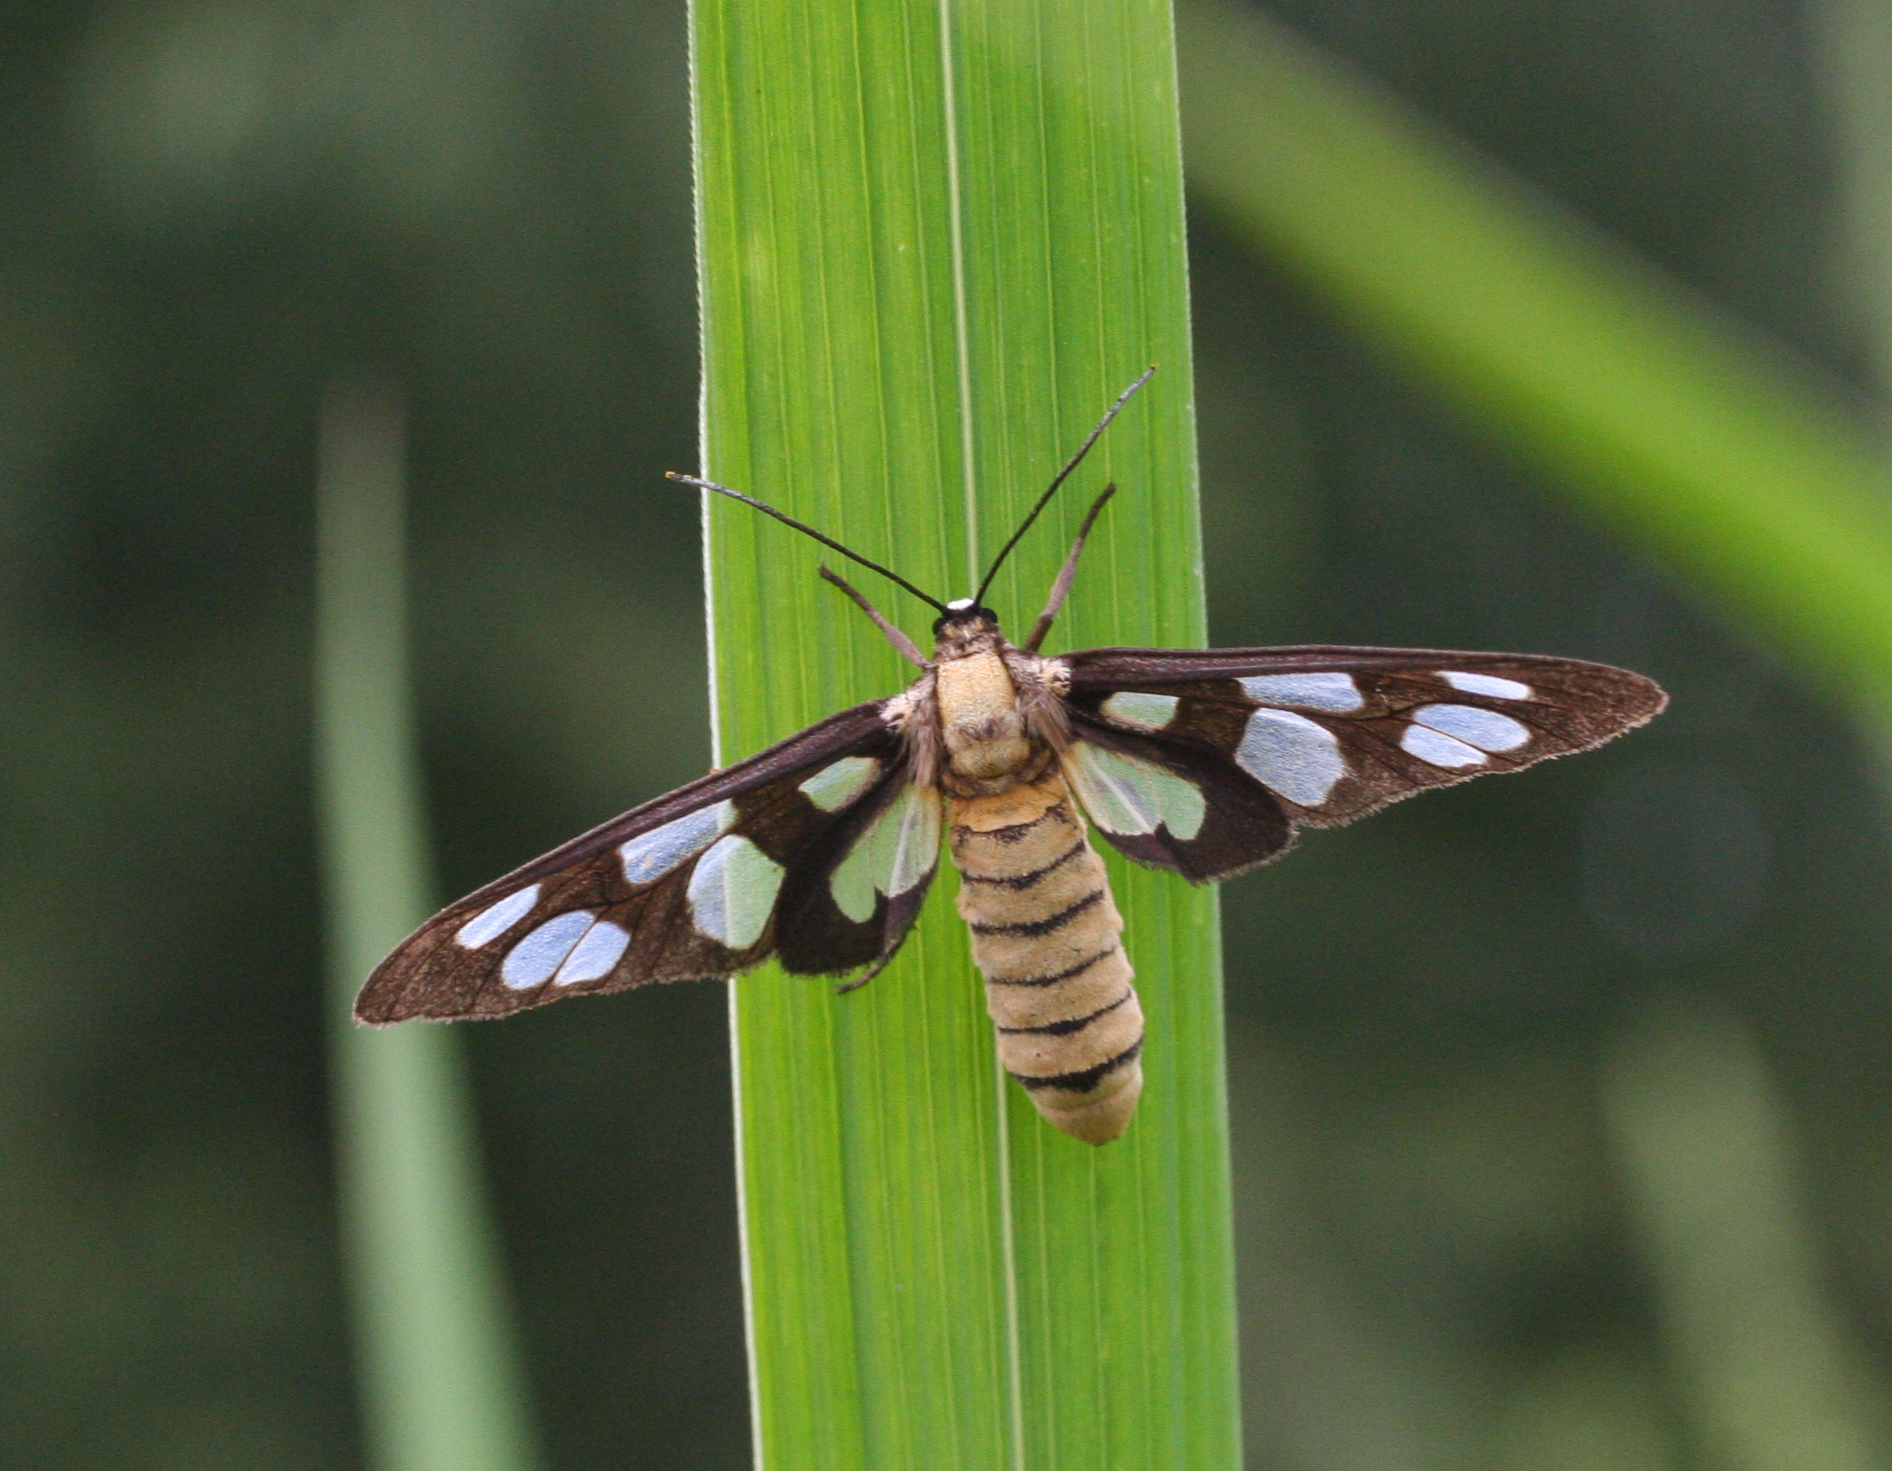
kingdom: Animalia
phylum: Arthropoda
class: Insecta
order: Lepidoptera
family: Erebidae
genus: Amata
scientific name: Amata germana
